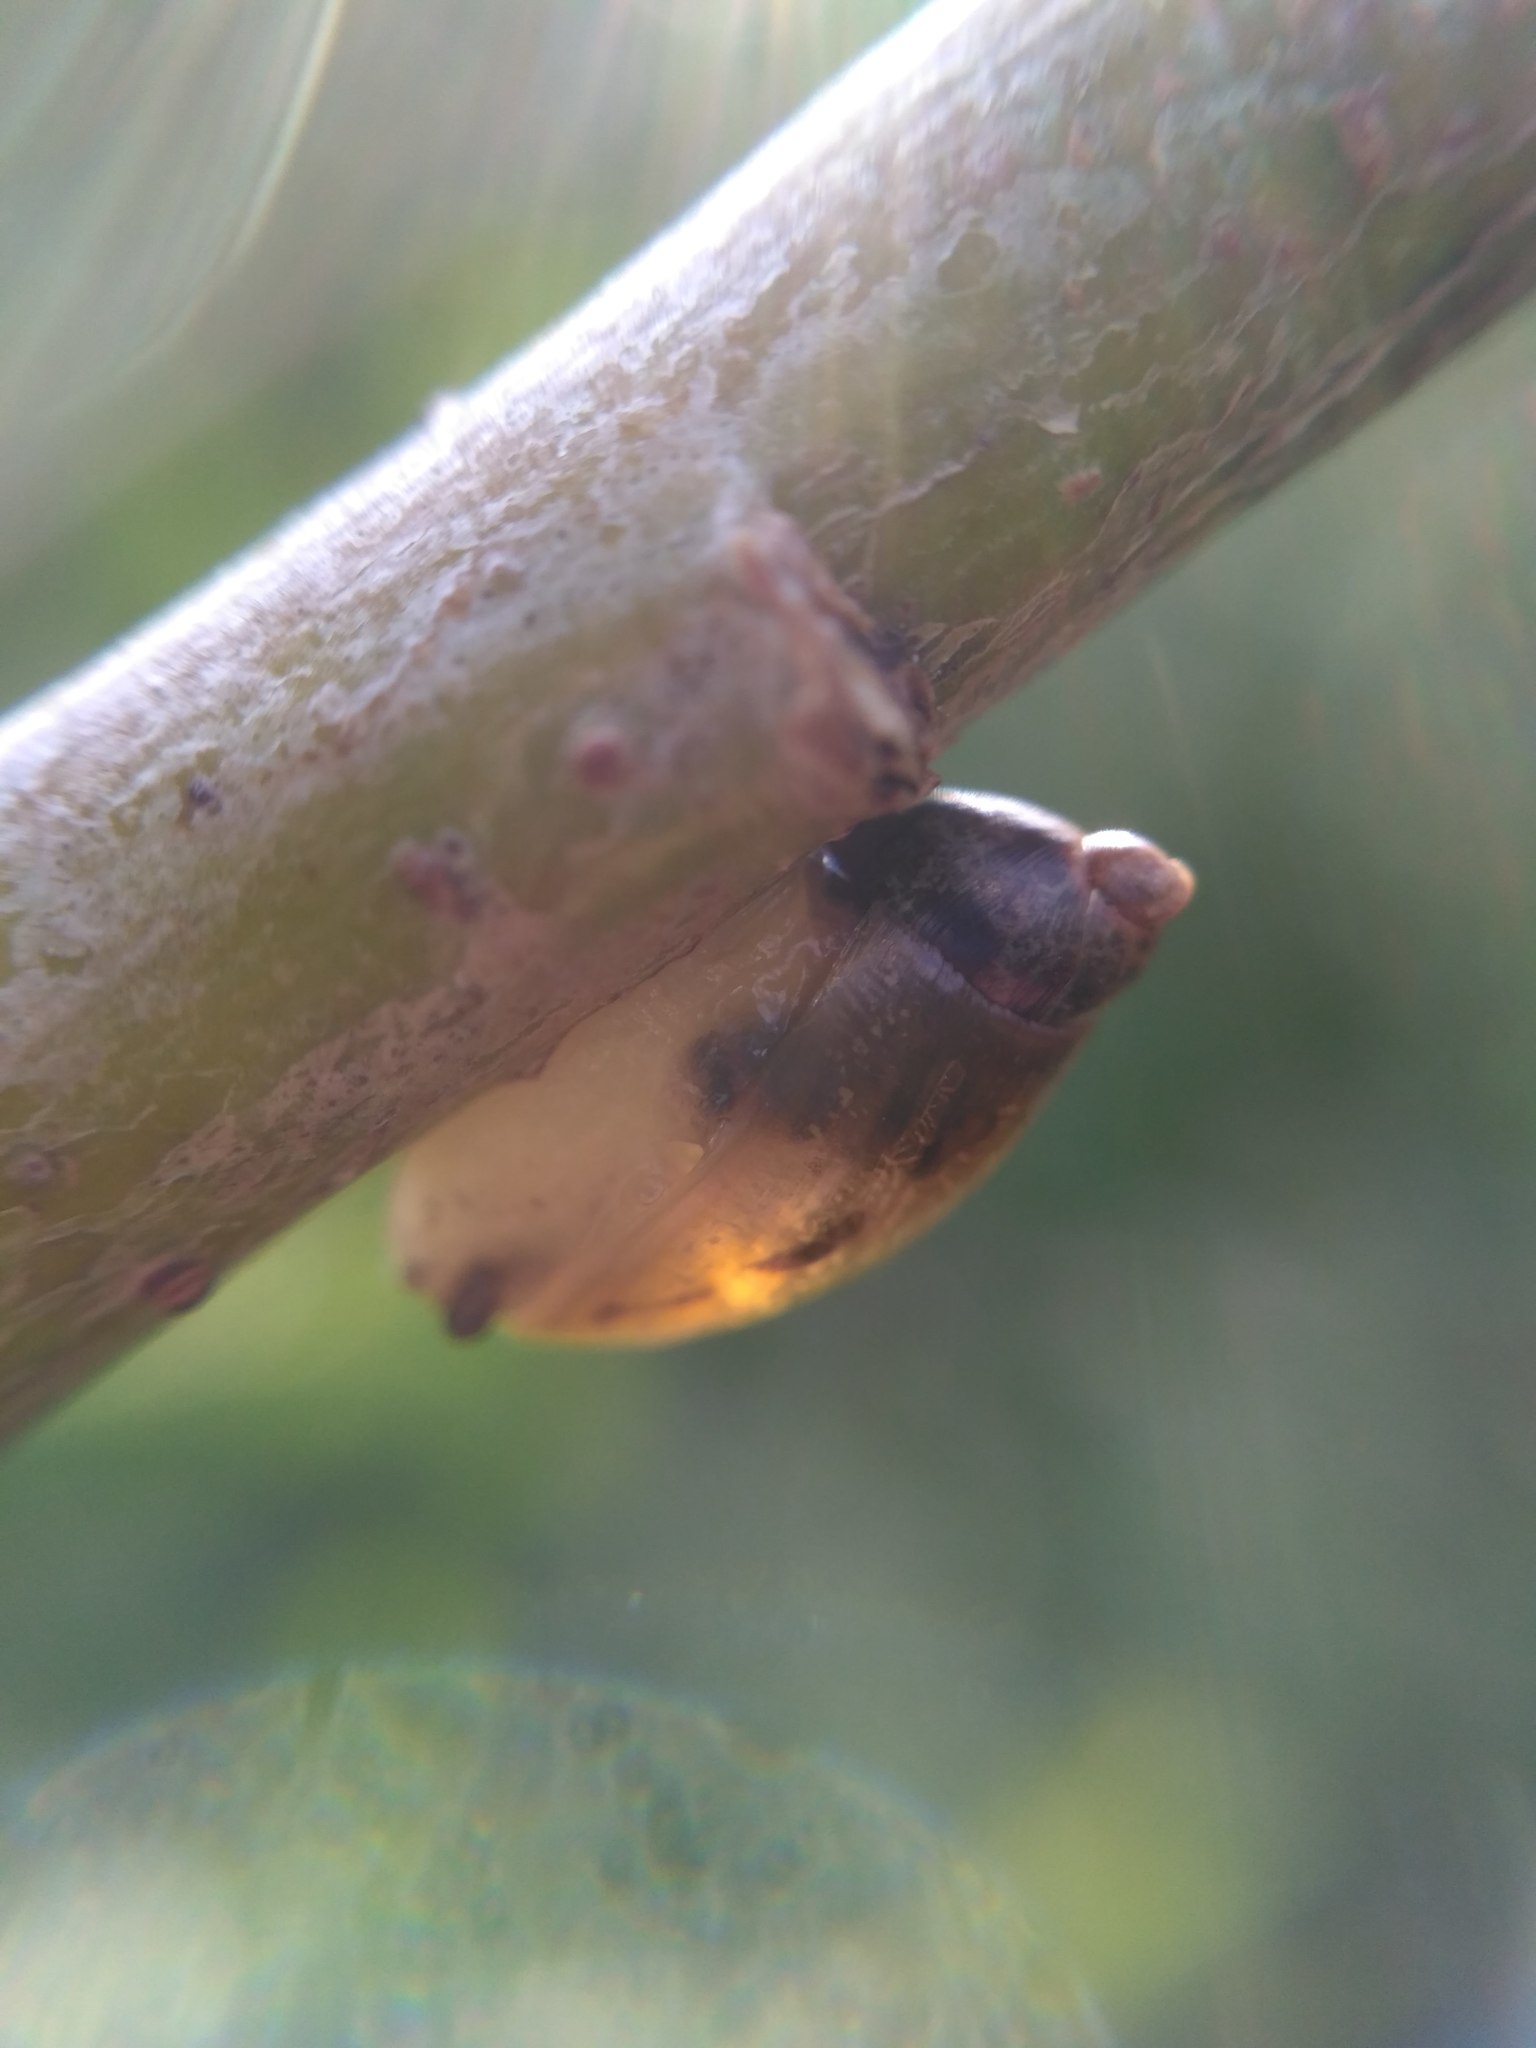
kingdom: Animalia
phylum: Mollusca
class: Gastropoda
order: Stylommatophora
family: Succineidae
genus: Succinea
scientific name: Succinea putris
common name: European ambersnail
